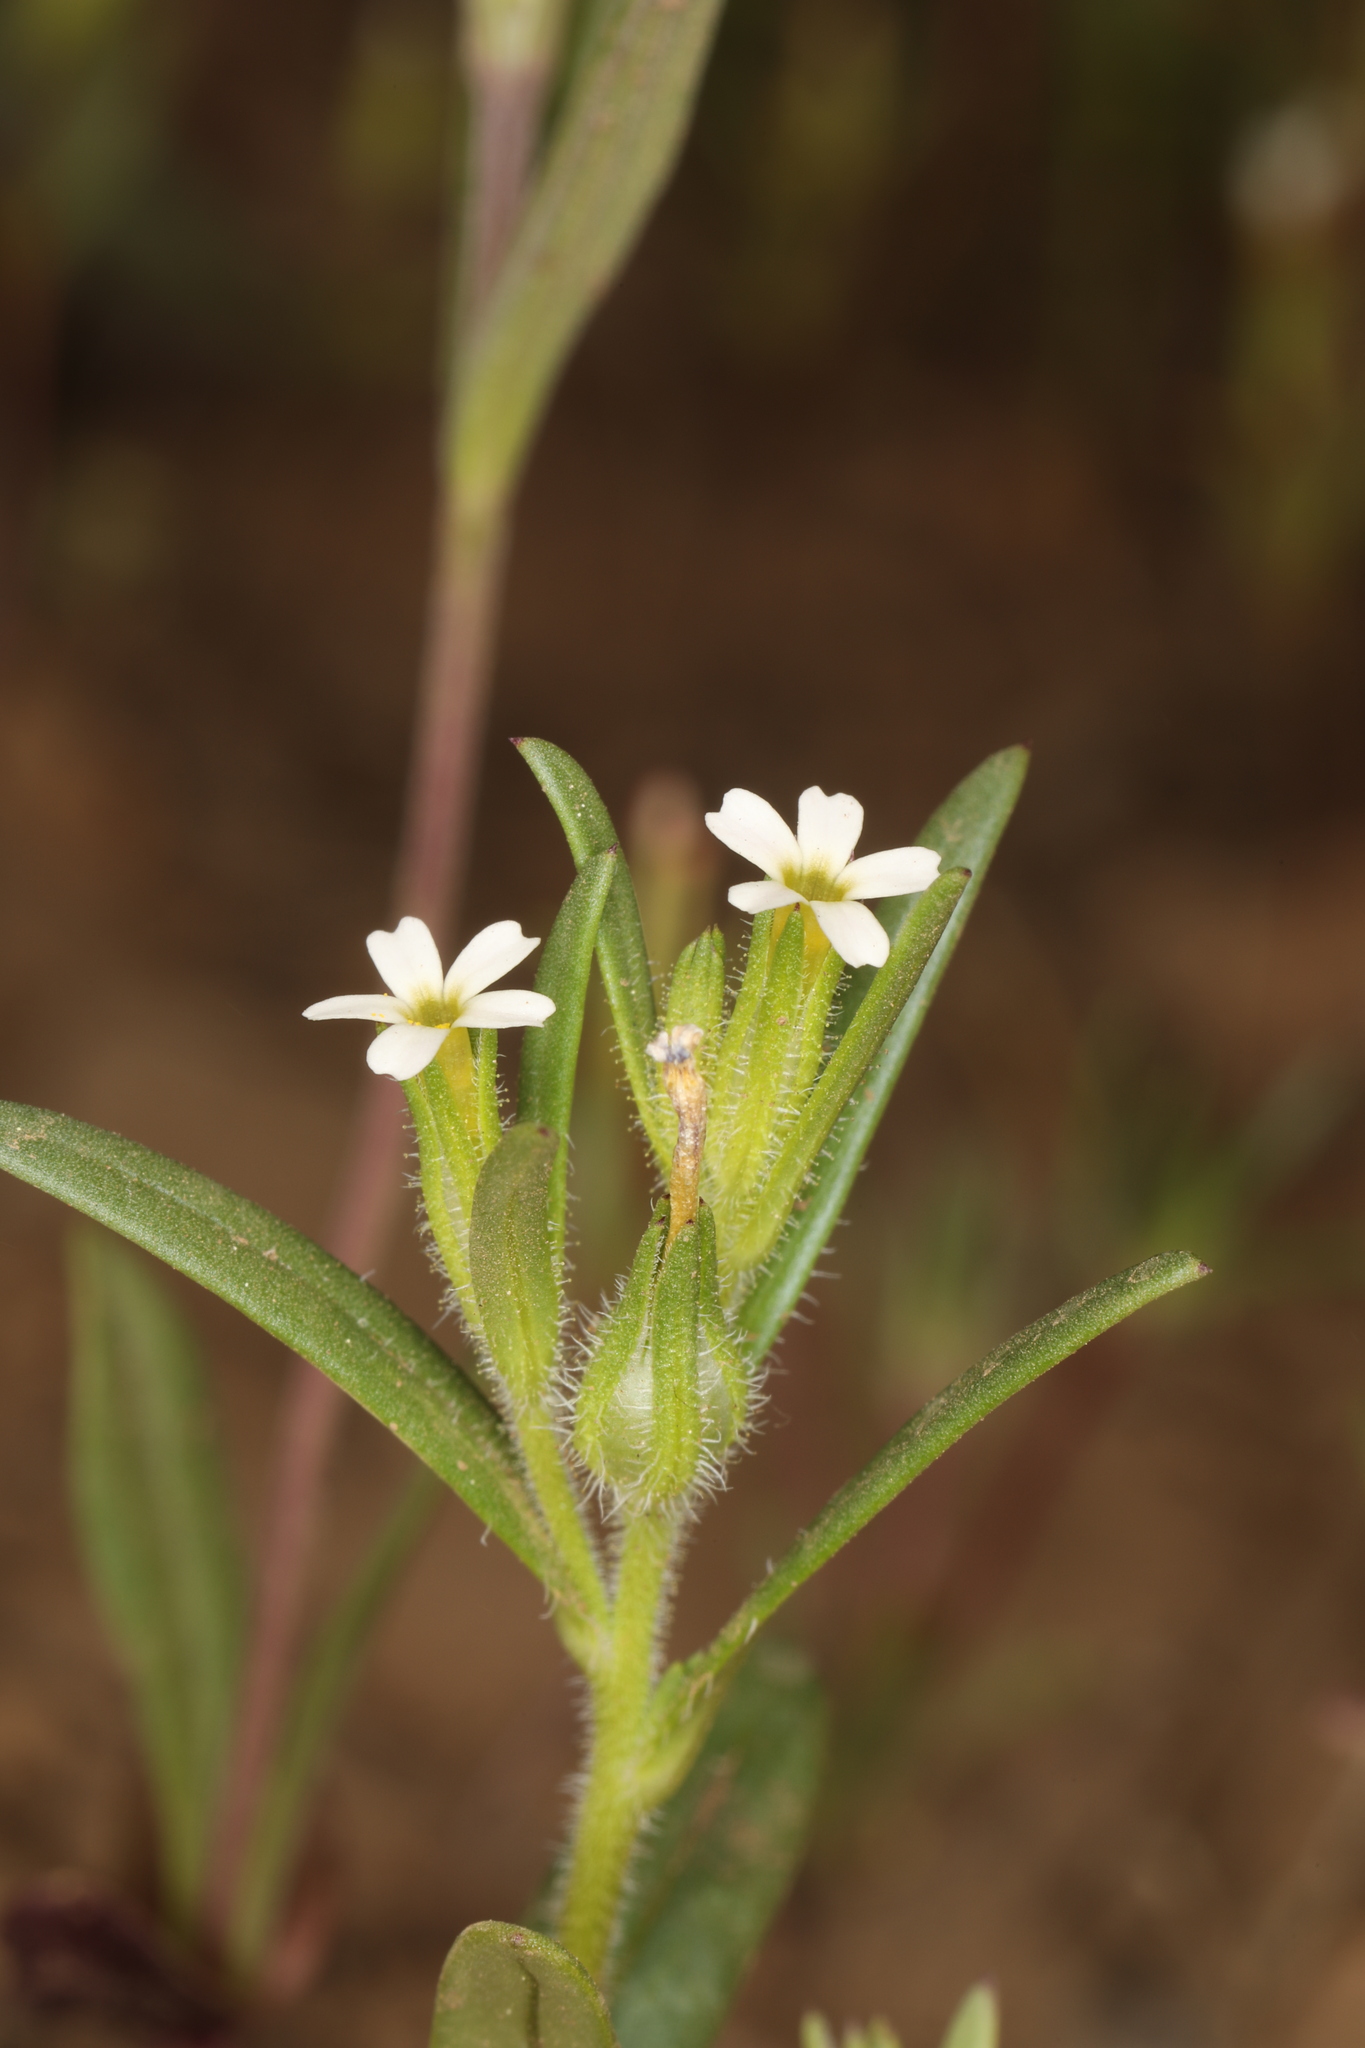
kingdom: Plantae
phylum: Tracheophyta
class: Magnoliopsida
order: Ericales
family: Polemoniaceae
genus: Phlox
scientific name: Phlox gracilis
